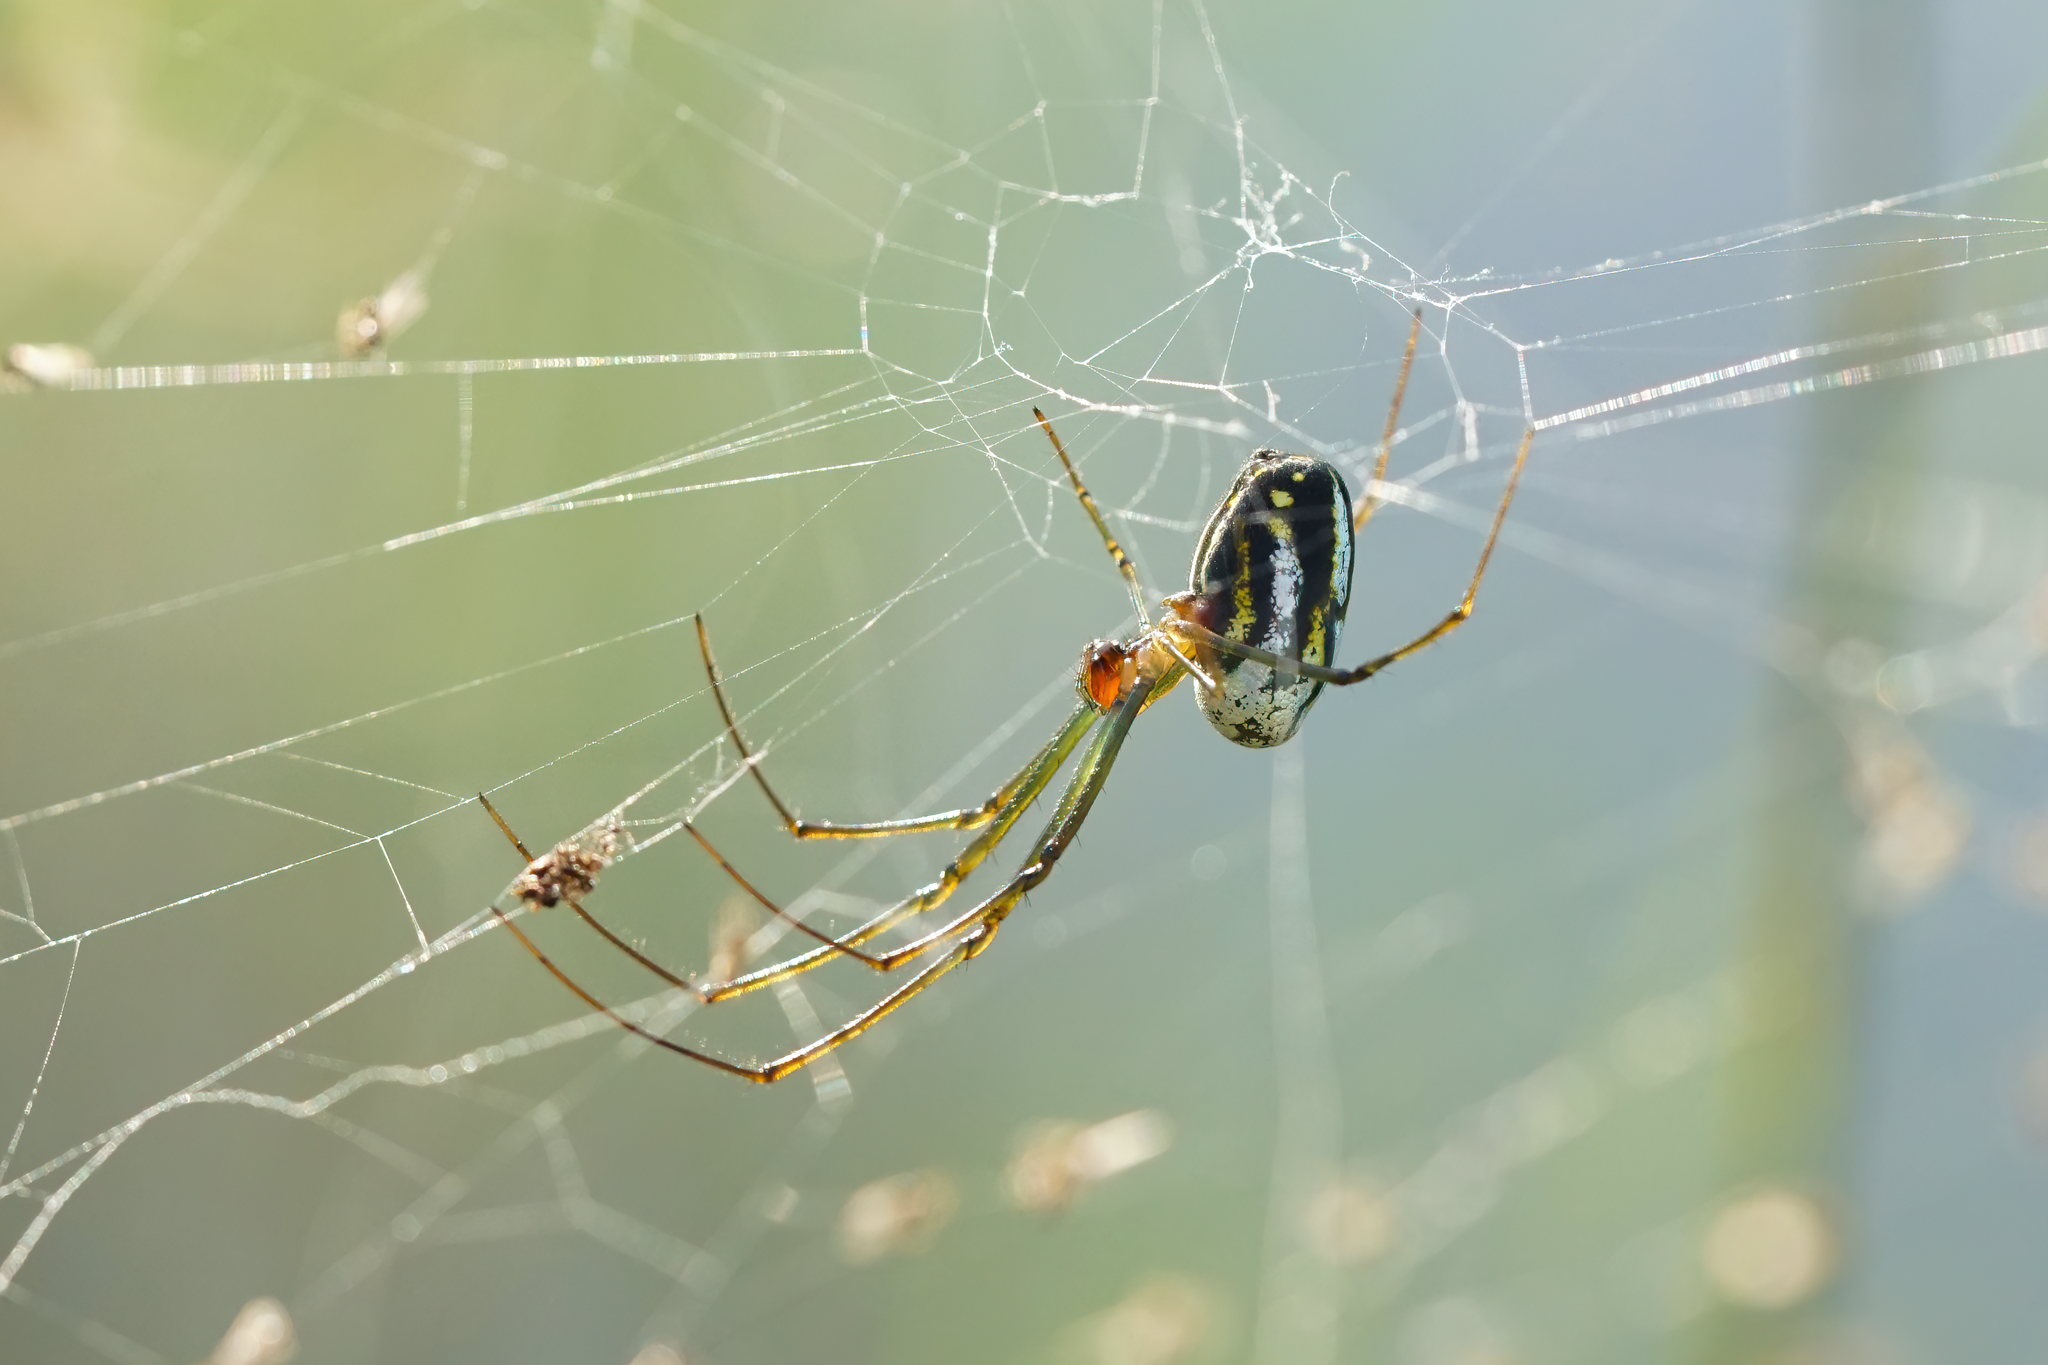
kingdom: Animalia
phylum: Arthropoda
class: Arachnida
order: Araneae
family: Tetragnathidae
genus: Leucauge
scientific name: Leucauge argyra
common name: Longjawed orb weavers
